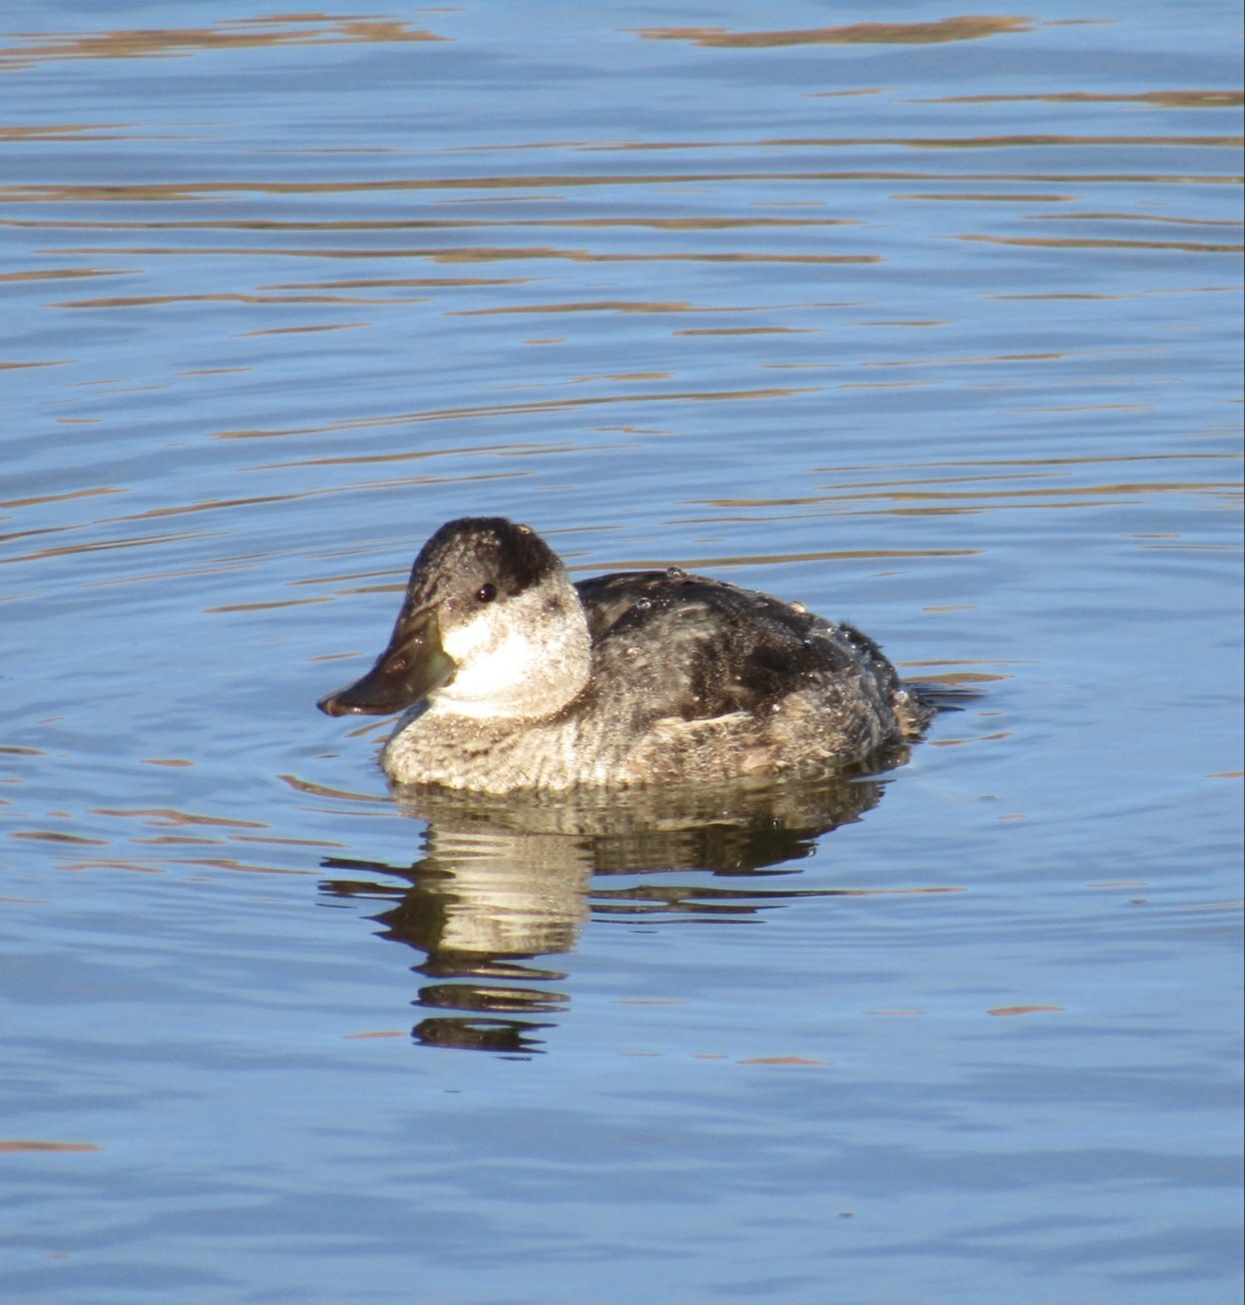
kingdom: Animalia
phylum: Chordata
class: Aves
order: Anseriformes
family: Anatidae
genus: Oxyura
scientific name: Oxyura jamaicensis
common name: Ruddy duck
